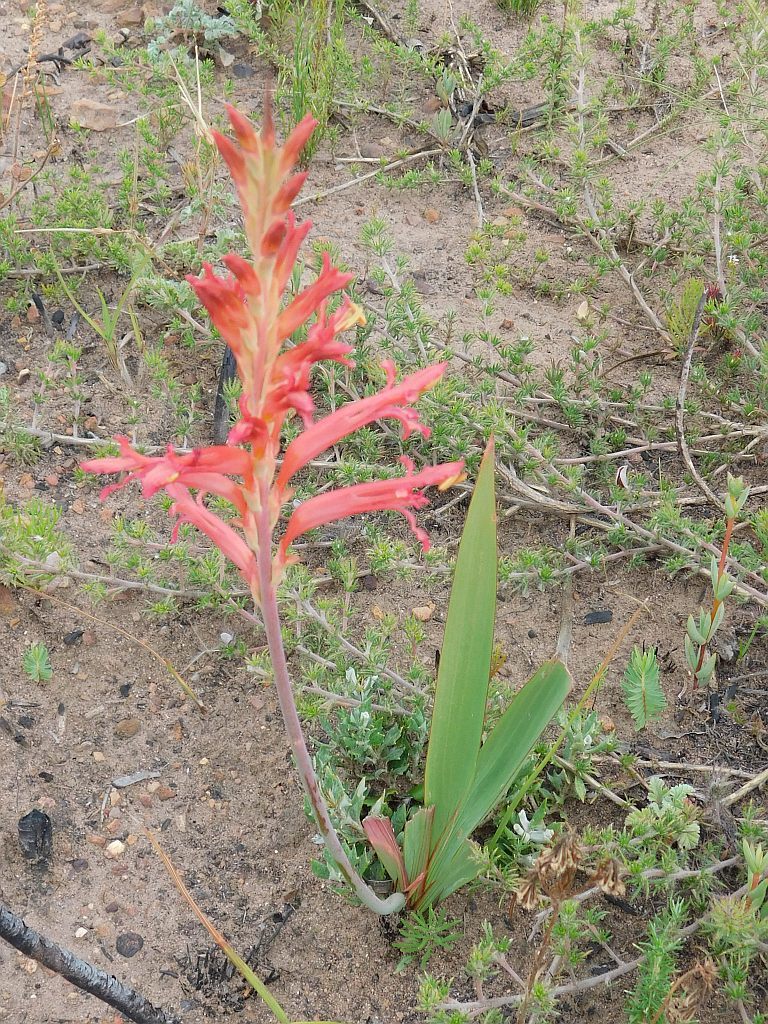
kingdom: Plantae
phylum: Tracheophyta
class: Liliopsida
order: Asparagales
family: Iridaceae
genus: Tritoniopsis
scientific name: Tritoniopsis antholyza
